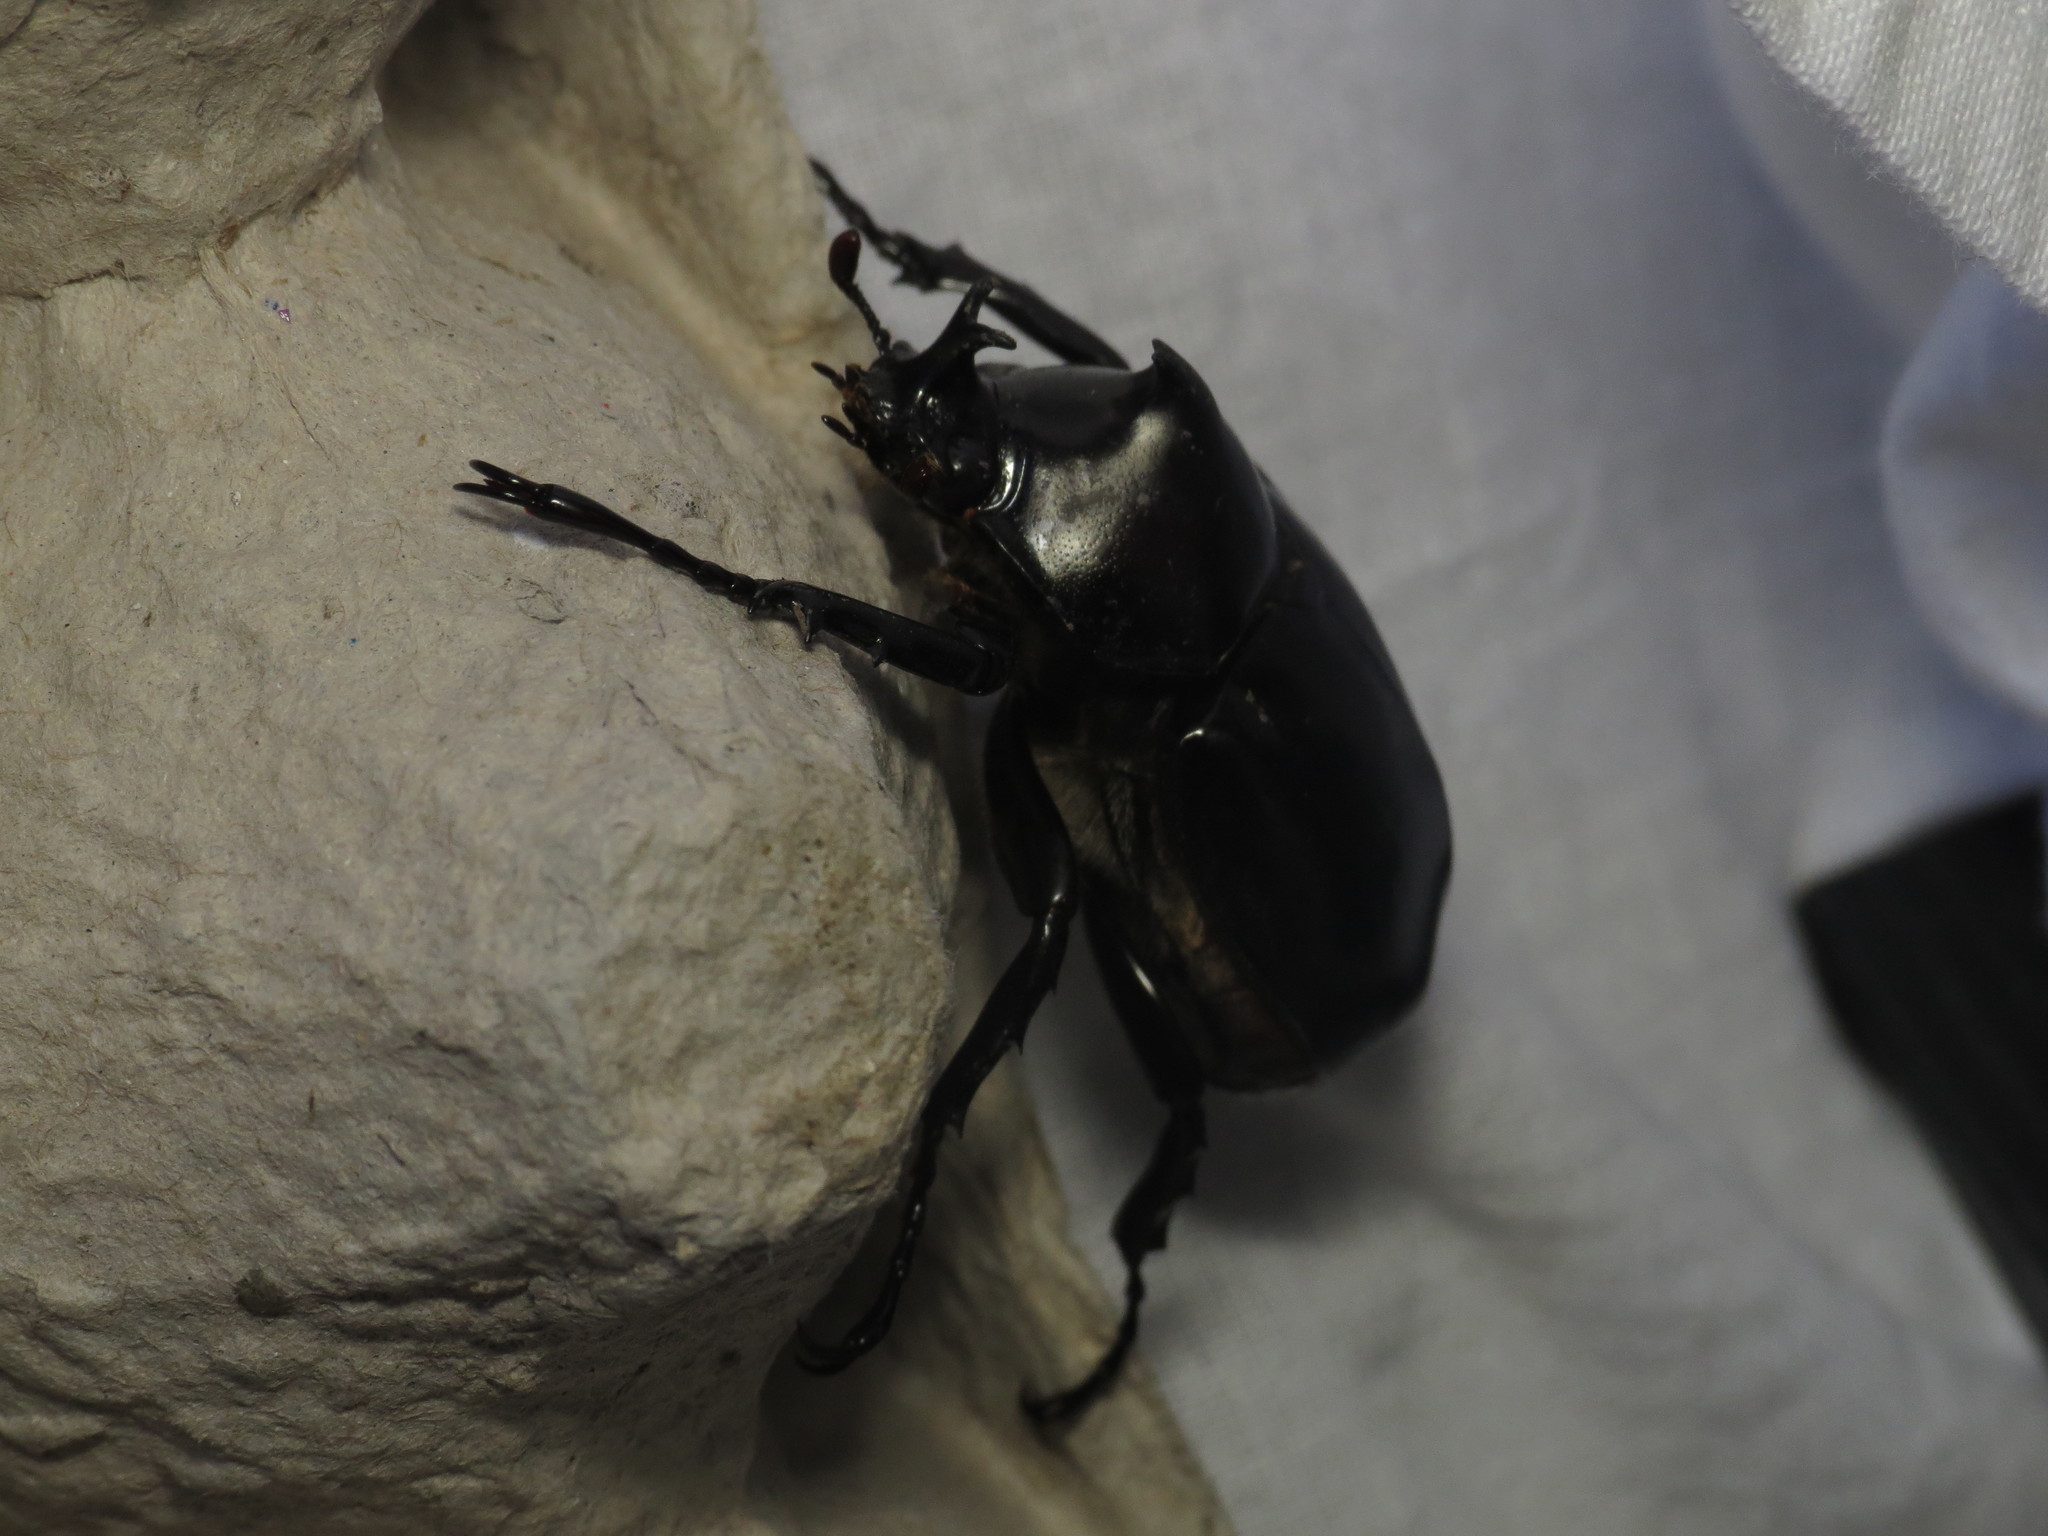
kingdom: Animalia
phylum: Arthropoda
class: Insecta
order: Coleoptera
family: Scarabaeidae
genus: Xylotrupes
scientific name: Xylotrupes australicus
